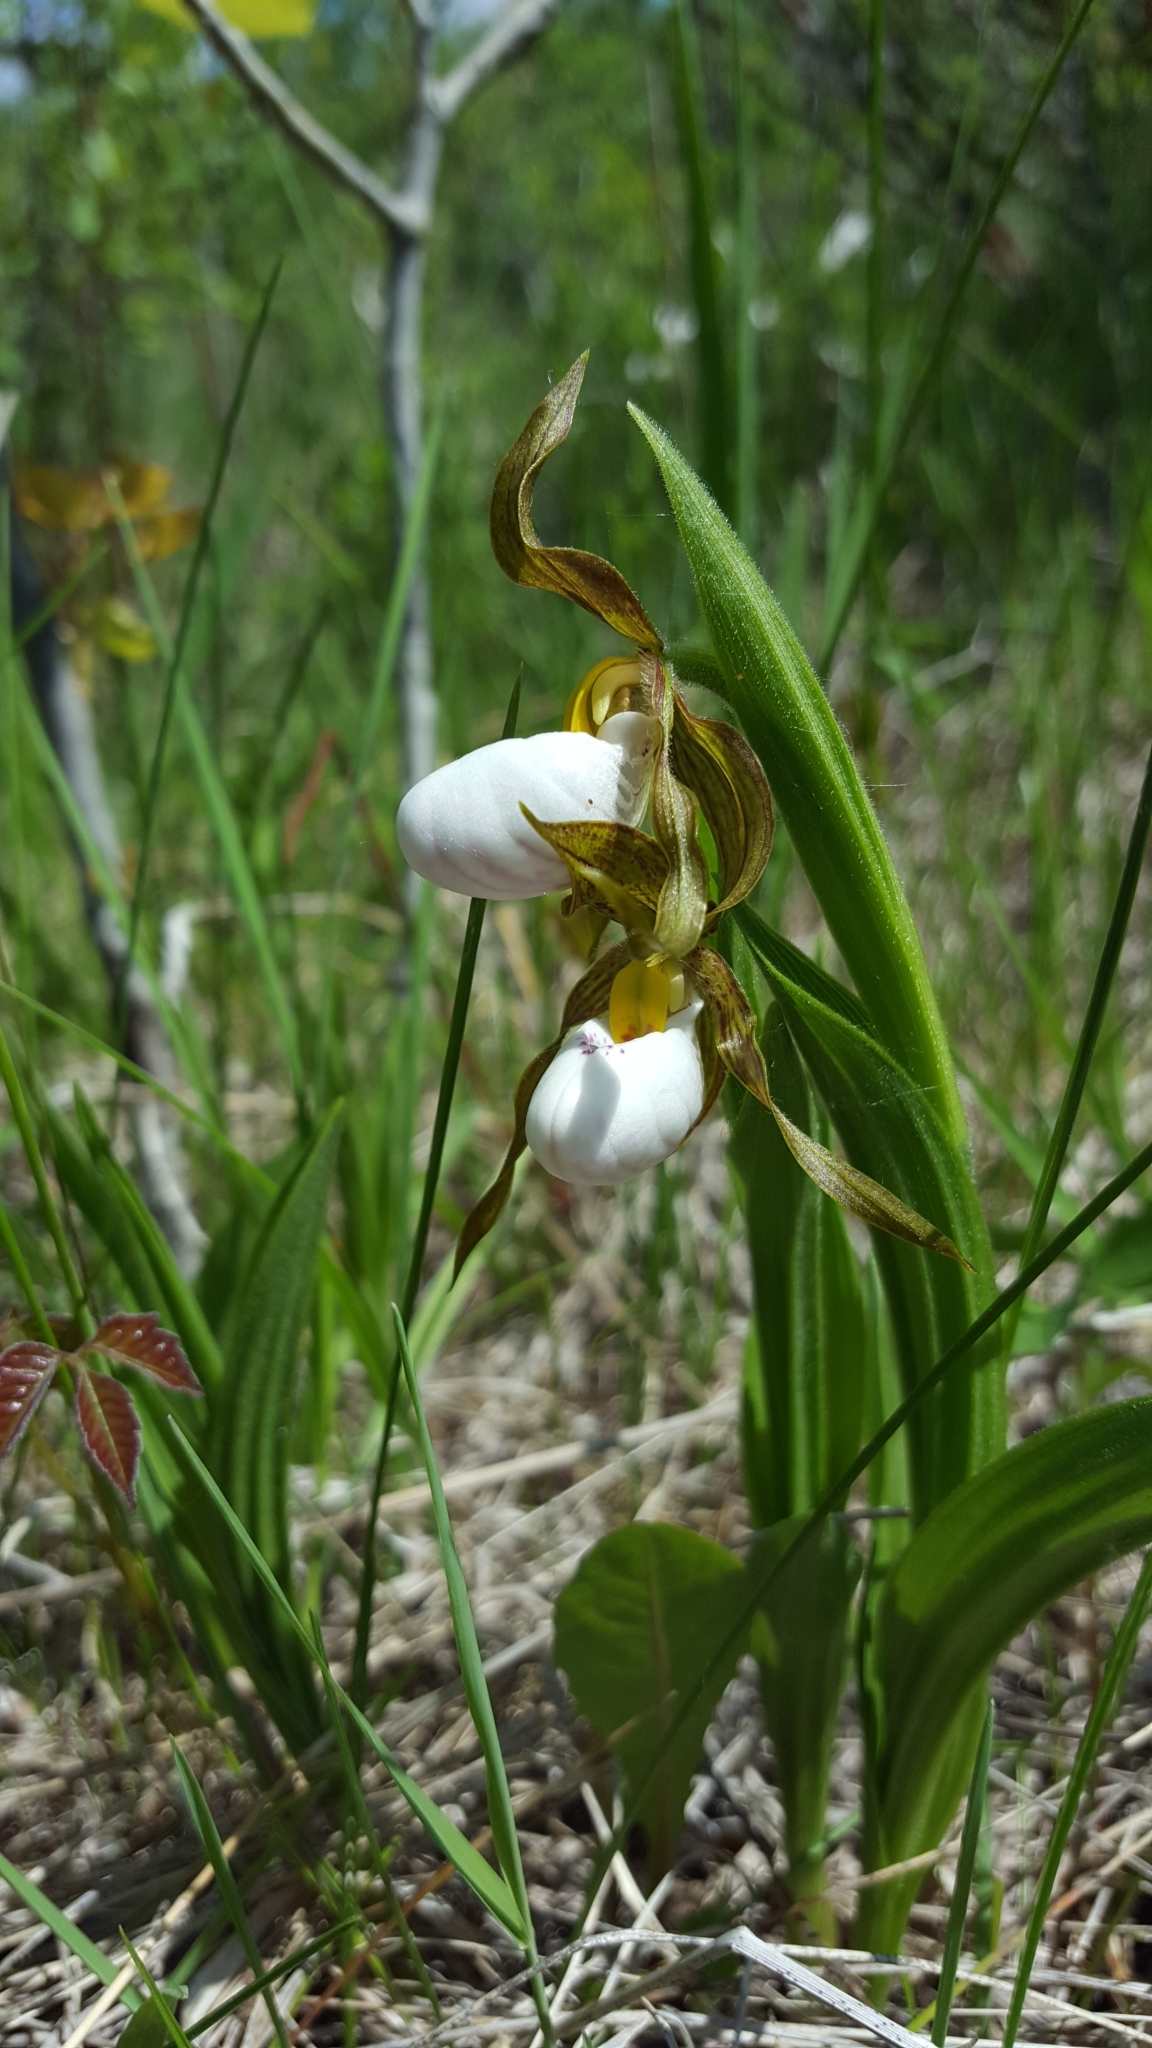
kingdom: Plantae
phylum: Tracheophyta
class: Liliopsida
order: Asparagales
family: Orchidaceae
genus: Cypripedium
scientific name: Cypripedium candidum
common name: White lady's-slipper
